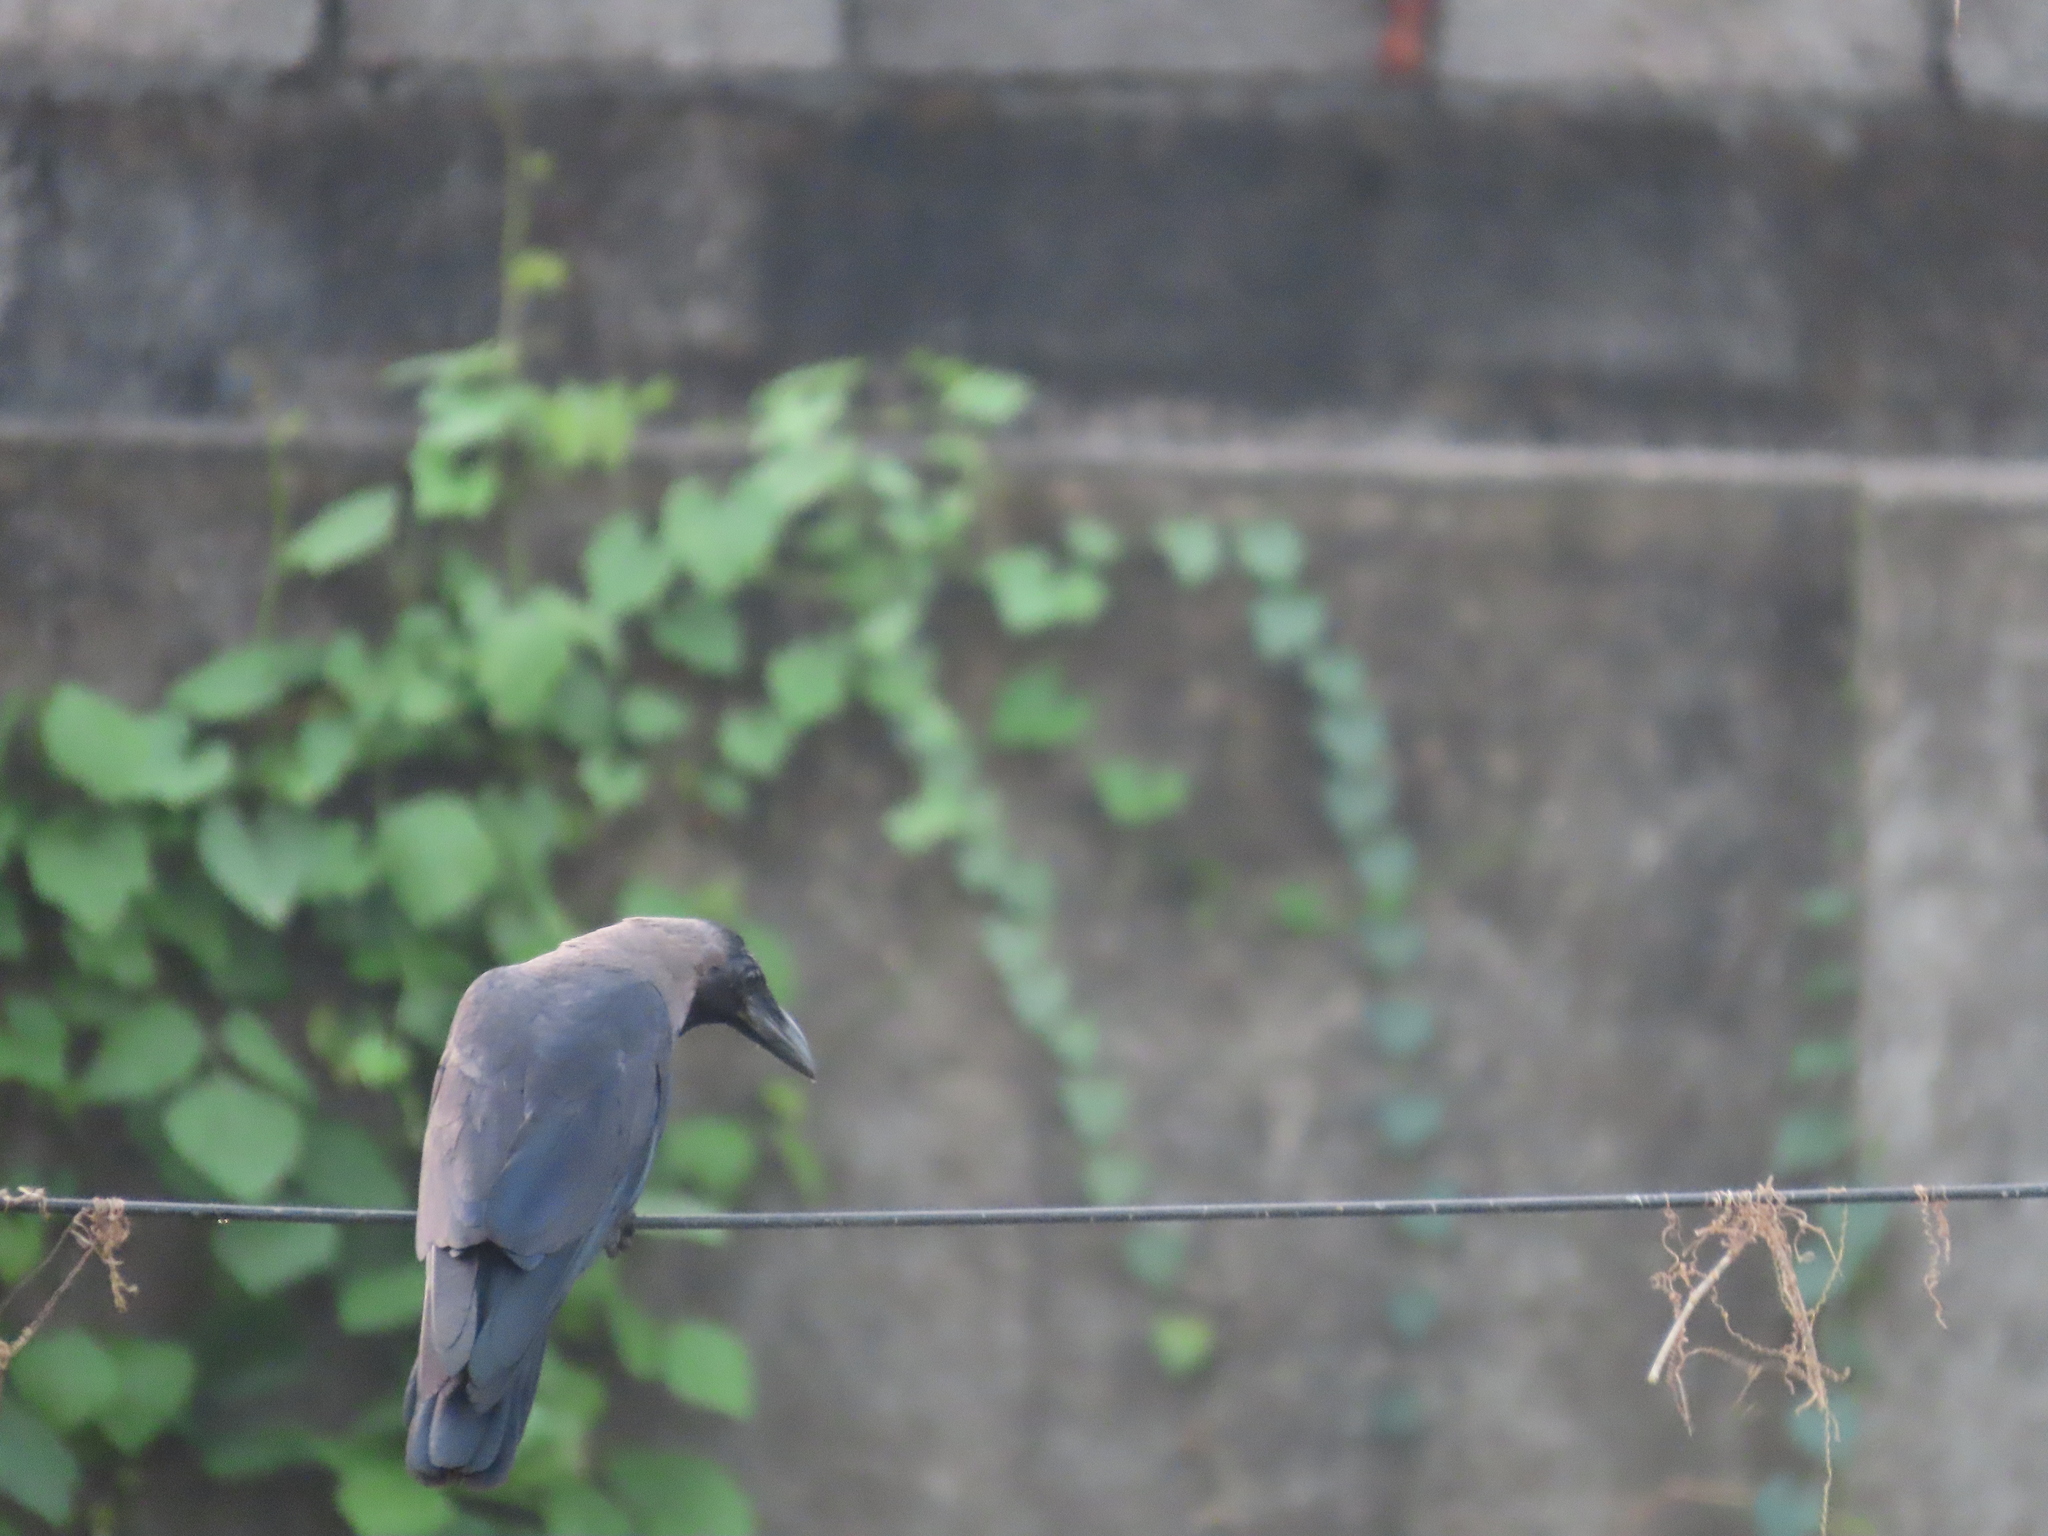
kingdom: Animalia
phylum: Chordata
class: Aves
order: Passeriformes
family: Corvidae
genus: Corvus
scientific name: Corvus splendens
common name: House crow
